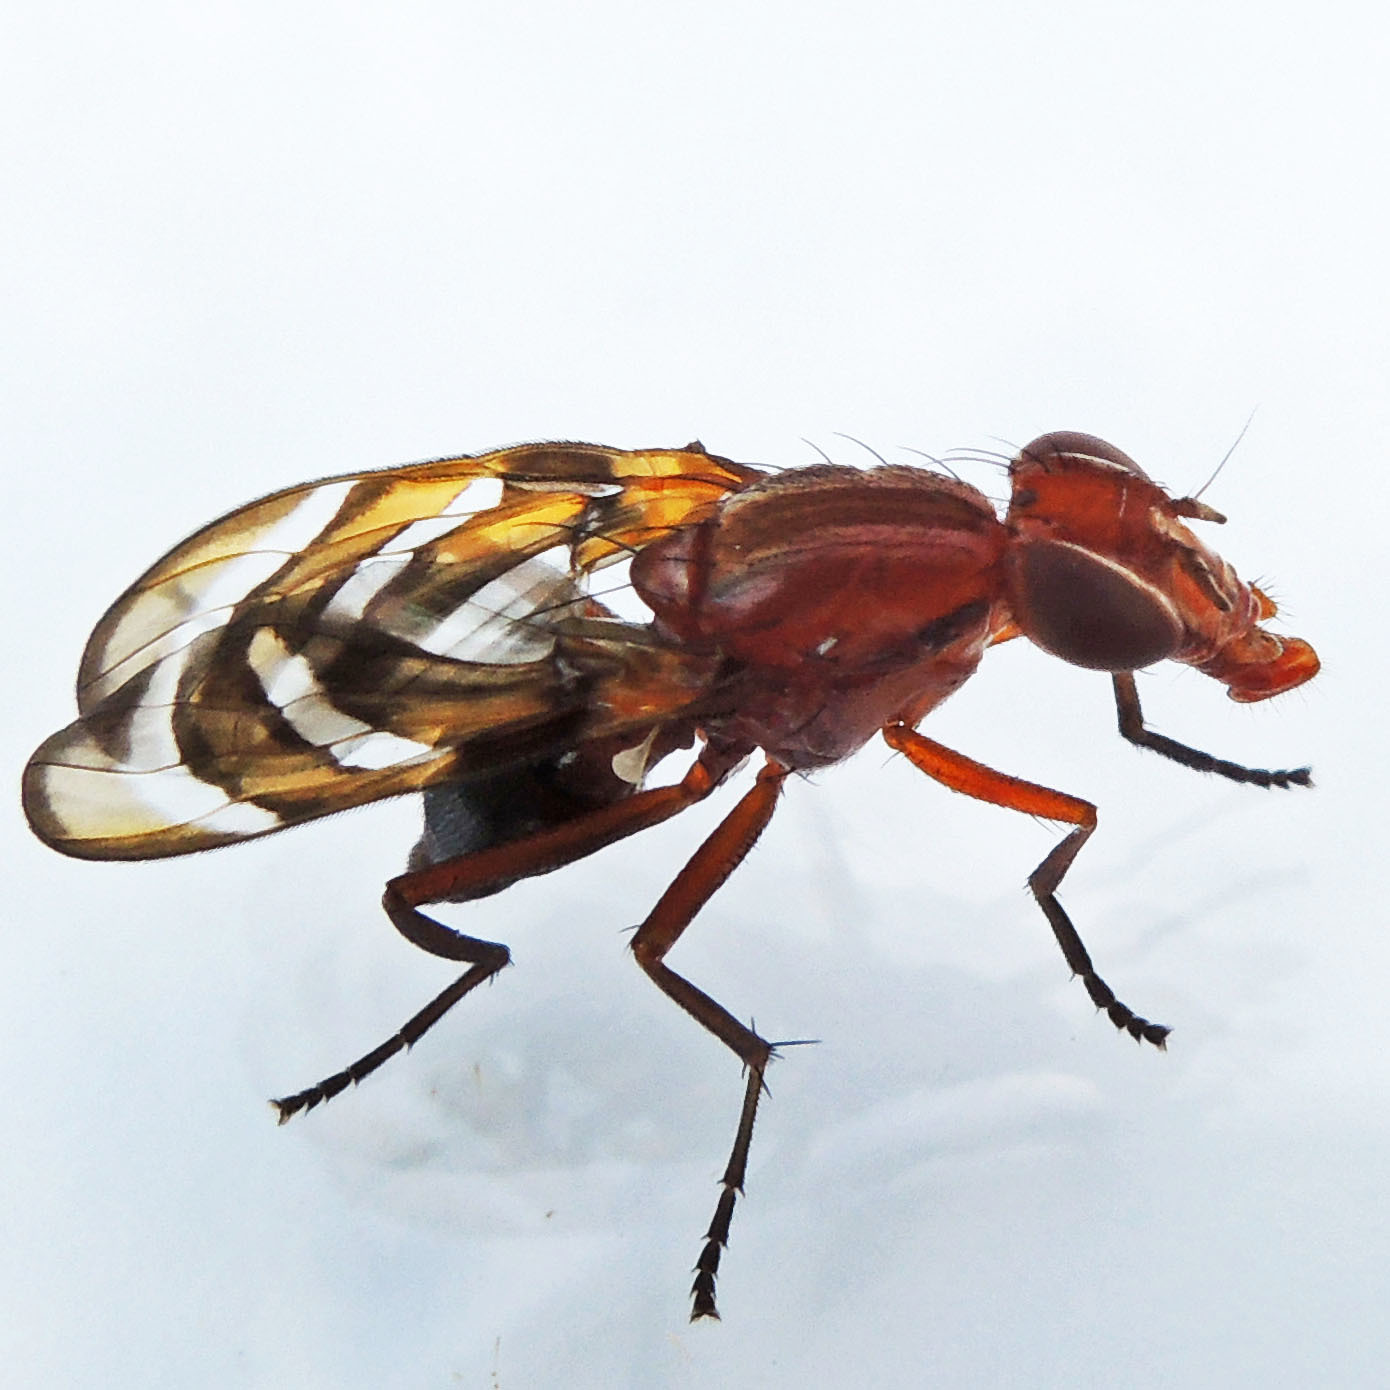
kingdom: Animalia
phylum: Arthropoda
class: Insecta
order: Diptera
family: Ulidiidae
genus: Tritoxa
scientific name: Tritoxa incurva
